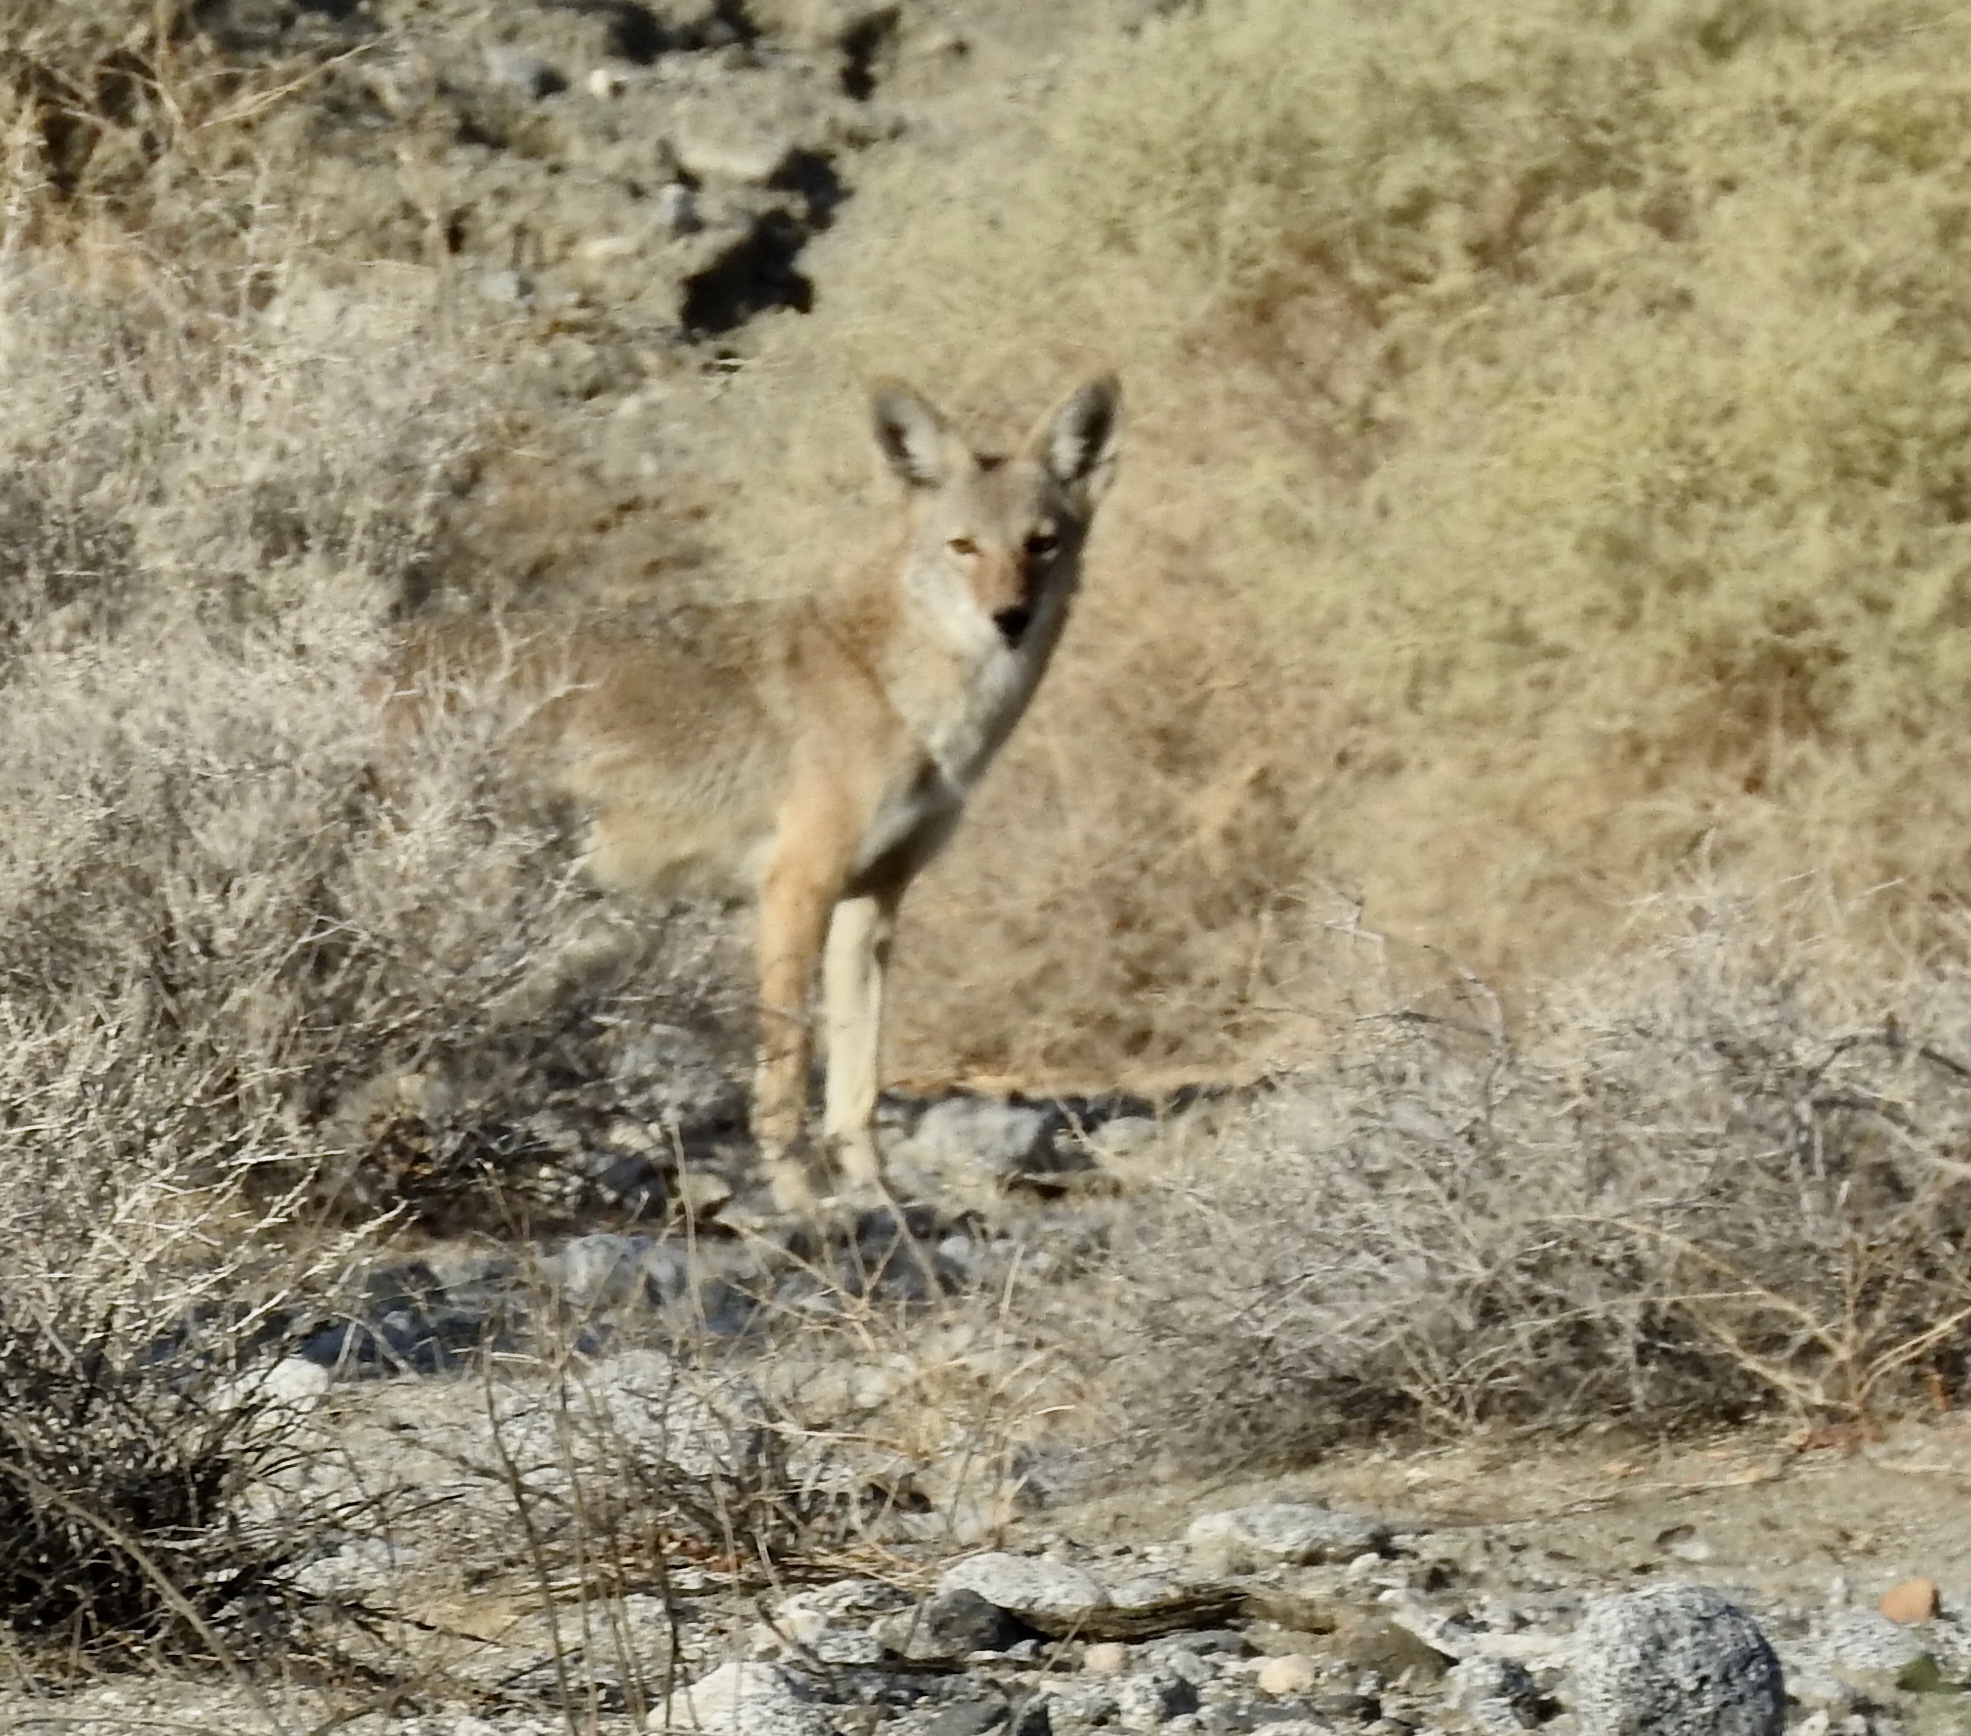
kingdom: Animalia
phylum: Chordata
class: Mammalia
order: Carnivora
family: Canidae
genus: Canis
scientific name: Canis latrans
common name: Coyote
